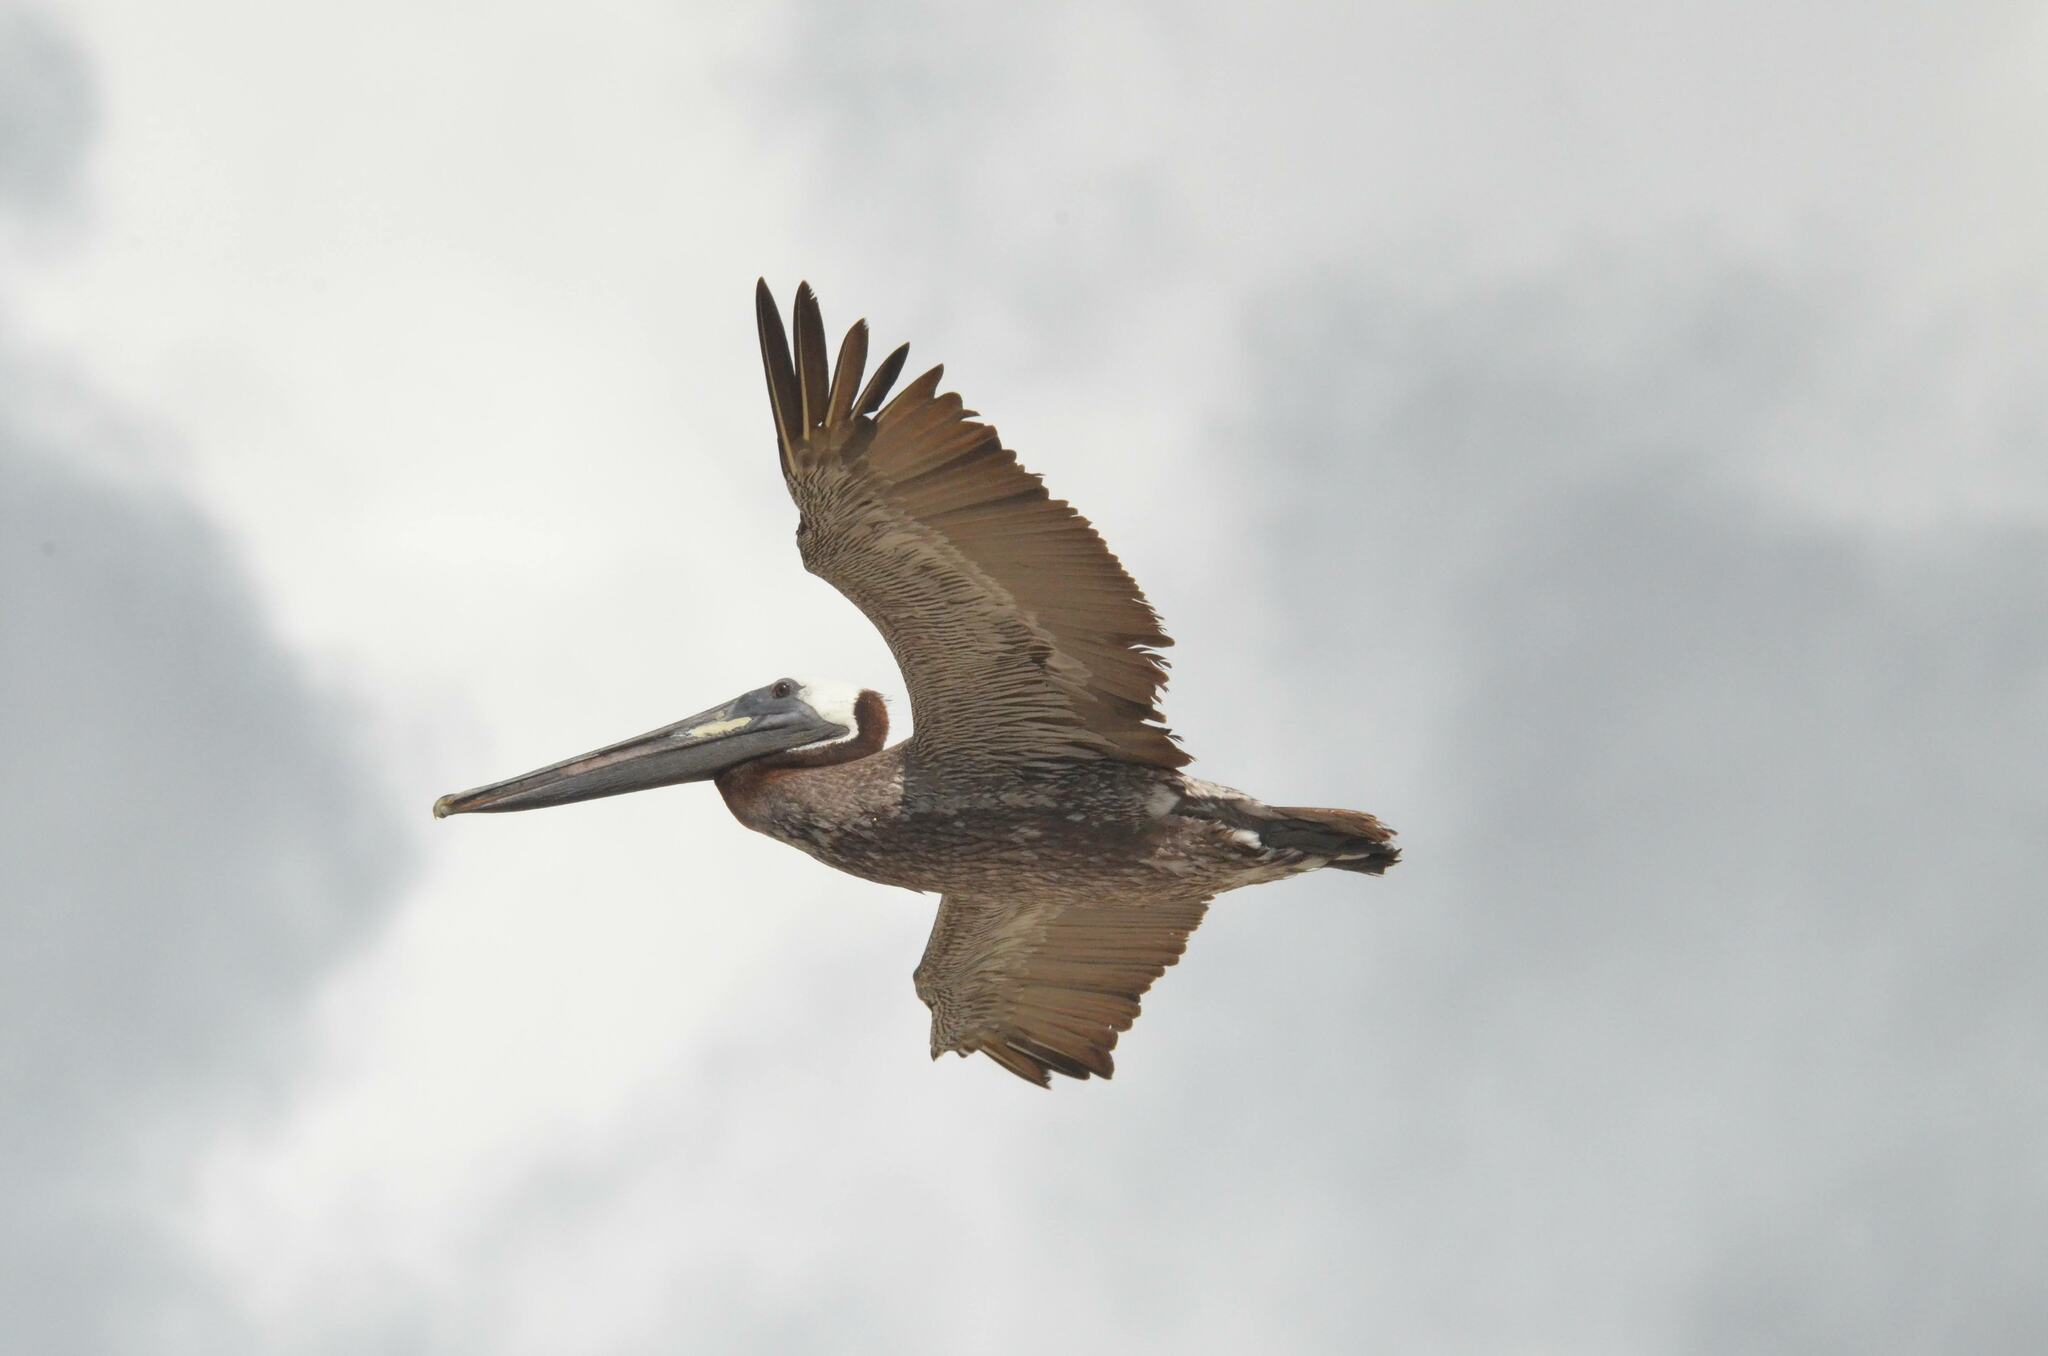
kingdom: Animalia
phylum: Chordata
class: Aves
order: Pelecaniformes
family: Pelecanidae
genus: Pelecanus
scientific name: Pelecanus occidentalis
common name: Brown pelican
